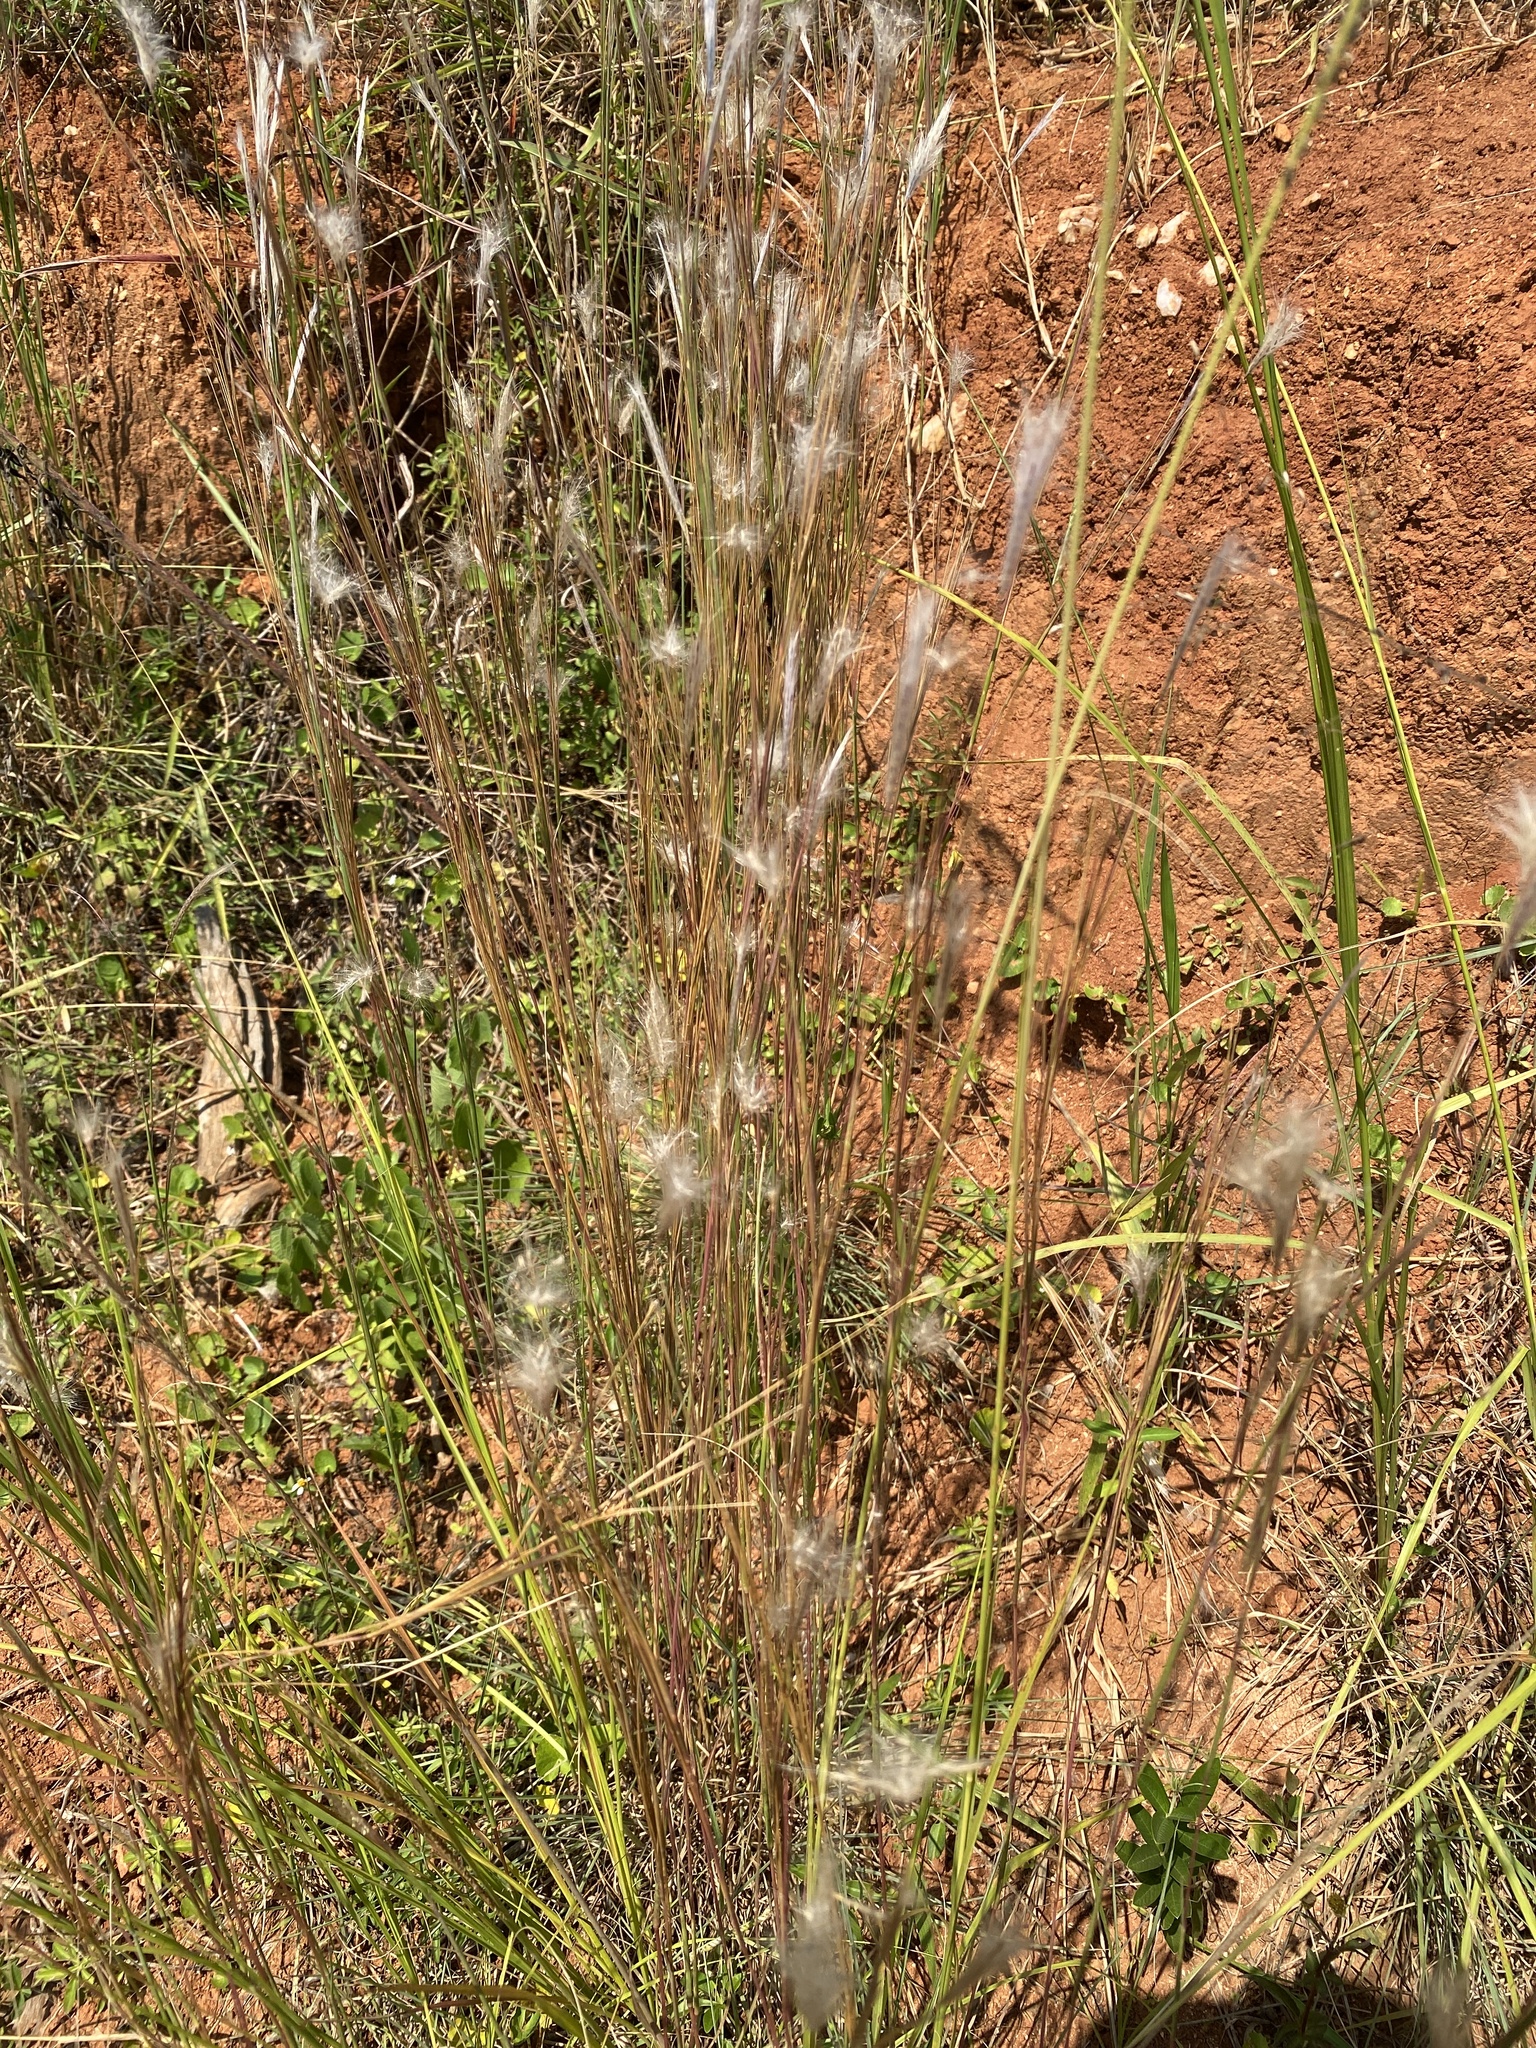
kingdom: Plantae
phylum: Tracheophyta
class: Liliopsida
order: Poales
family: Poaceae
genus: Andropogon
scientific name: Andropogon eucomus
